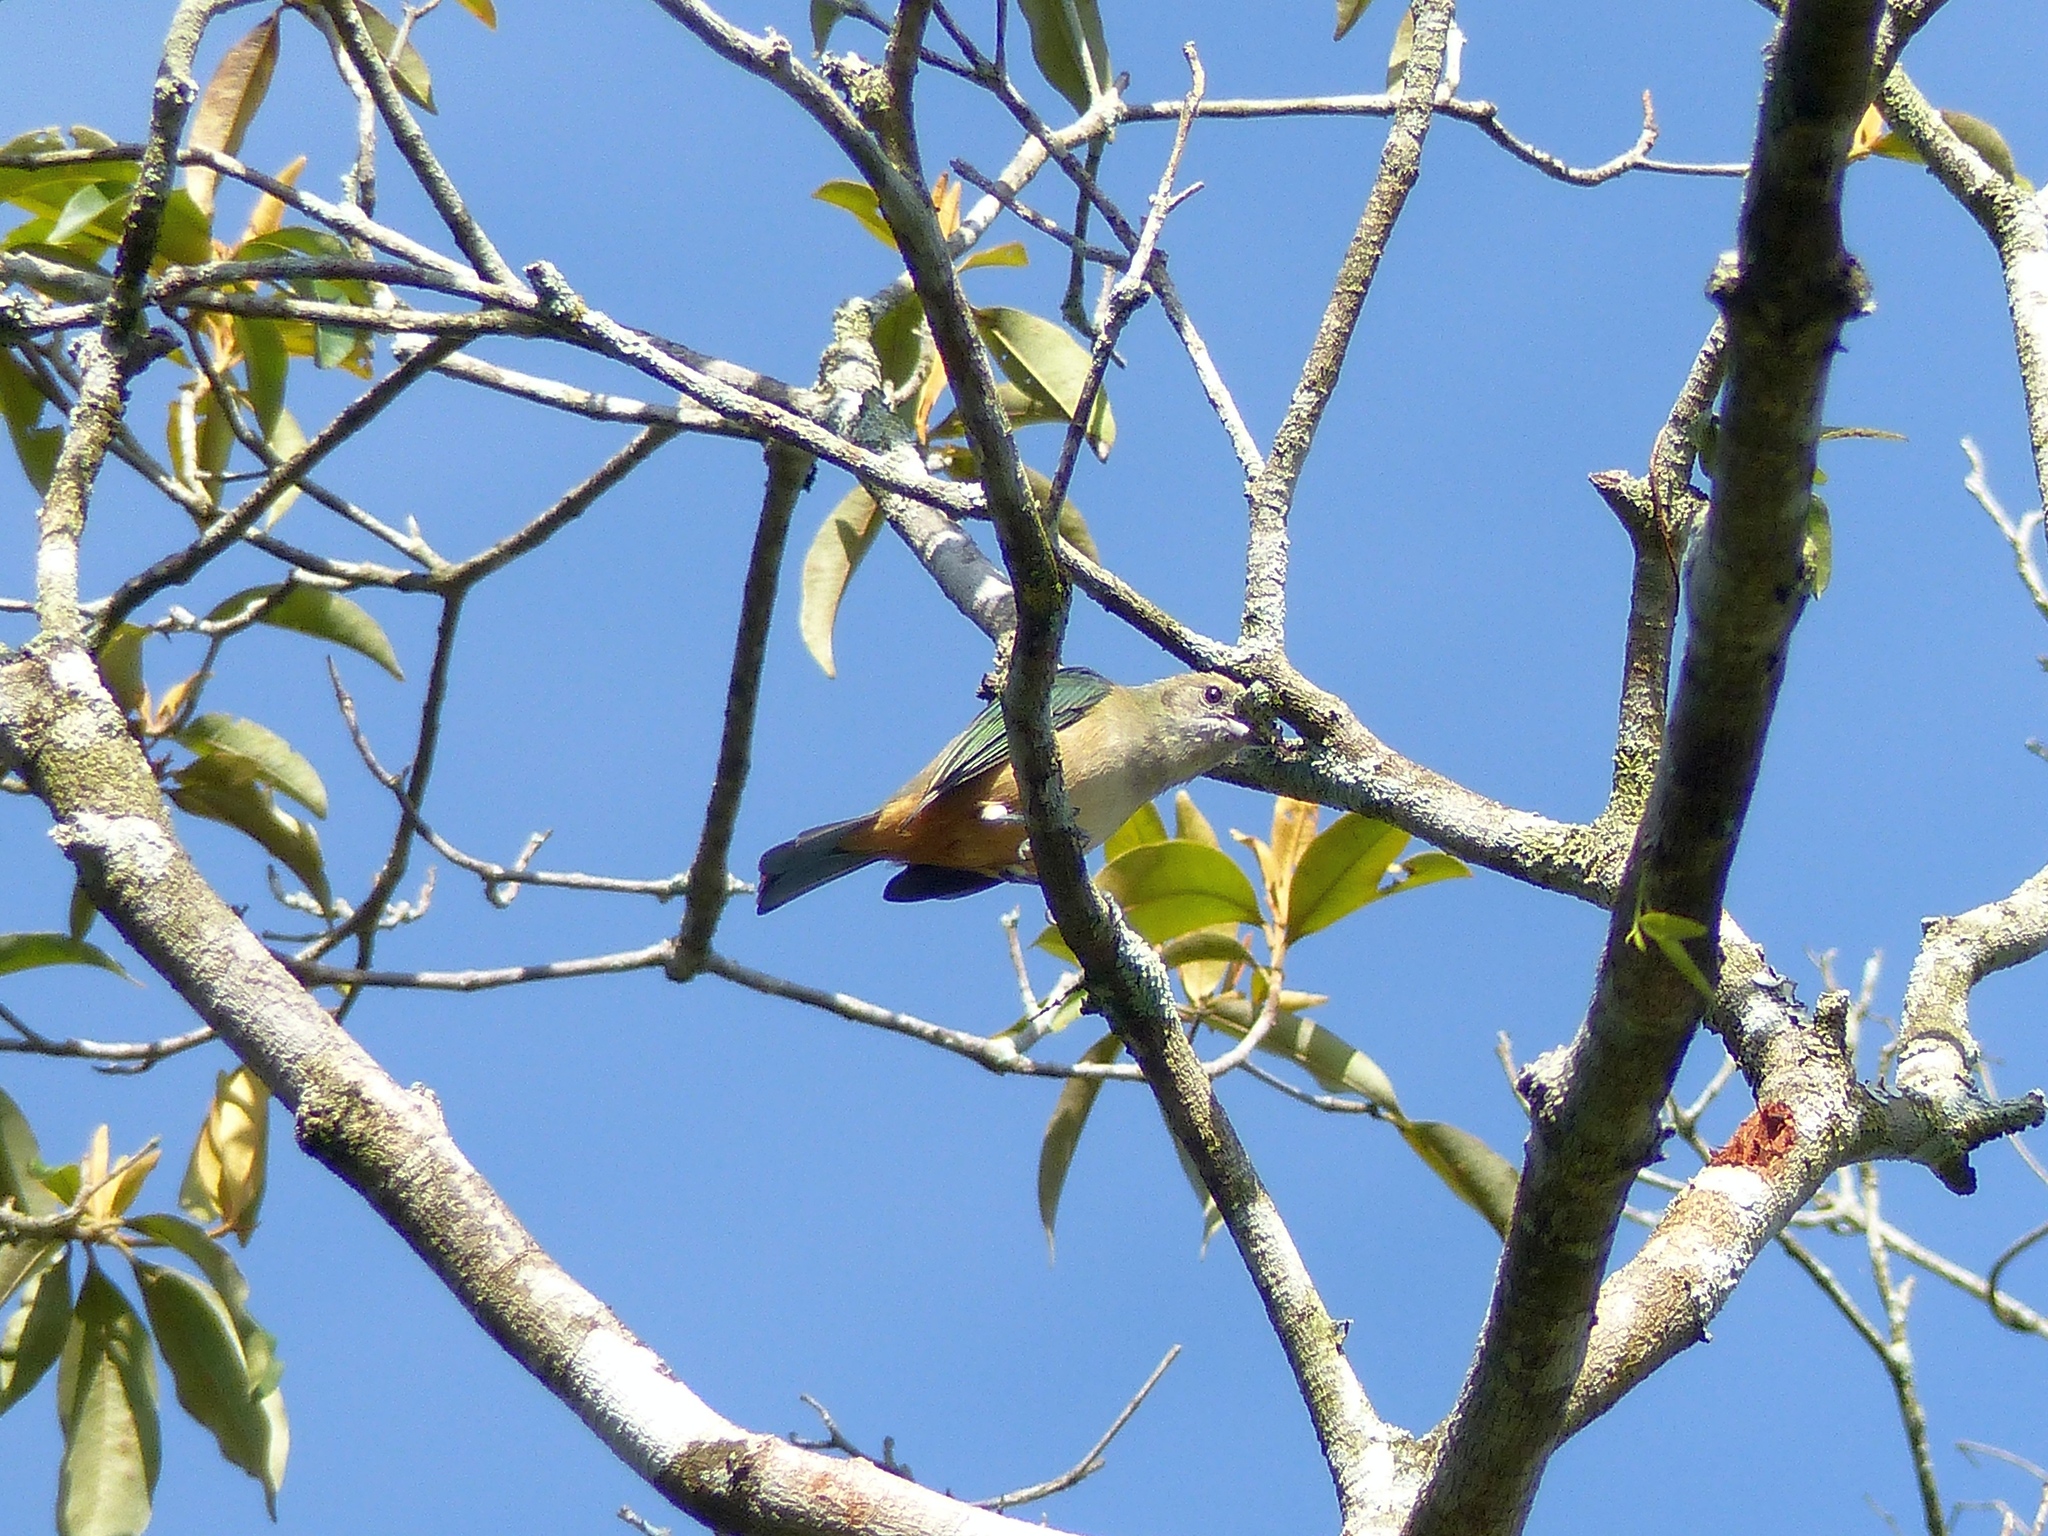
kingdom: Animalia
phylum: Chordata
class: Aves
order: Passeriformes
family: Thraupidae
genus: Stilpnia
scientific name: Stilpnia cayana
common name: Burnished-buff tanager
